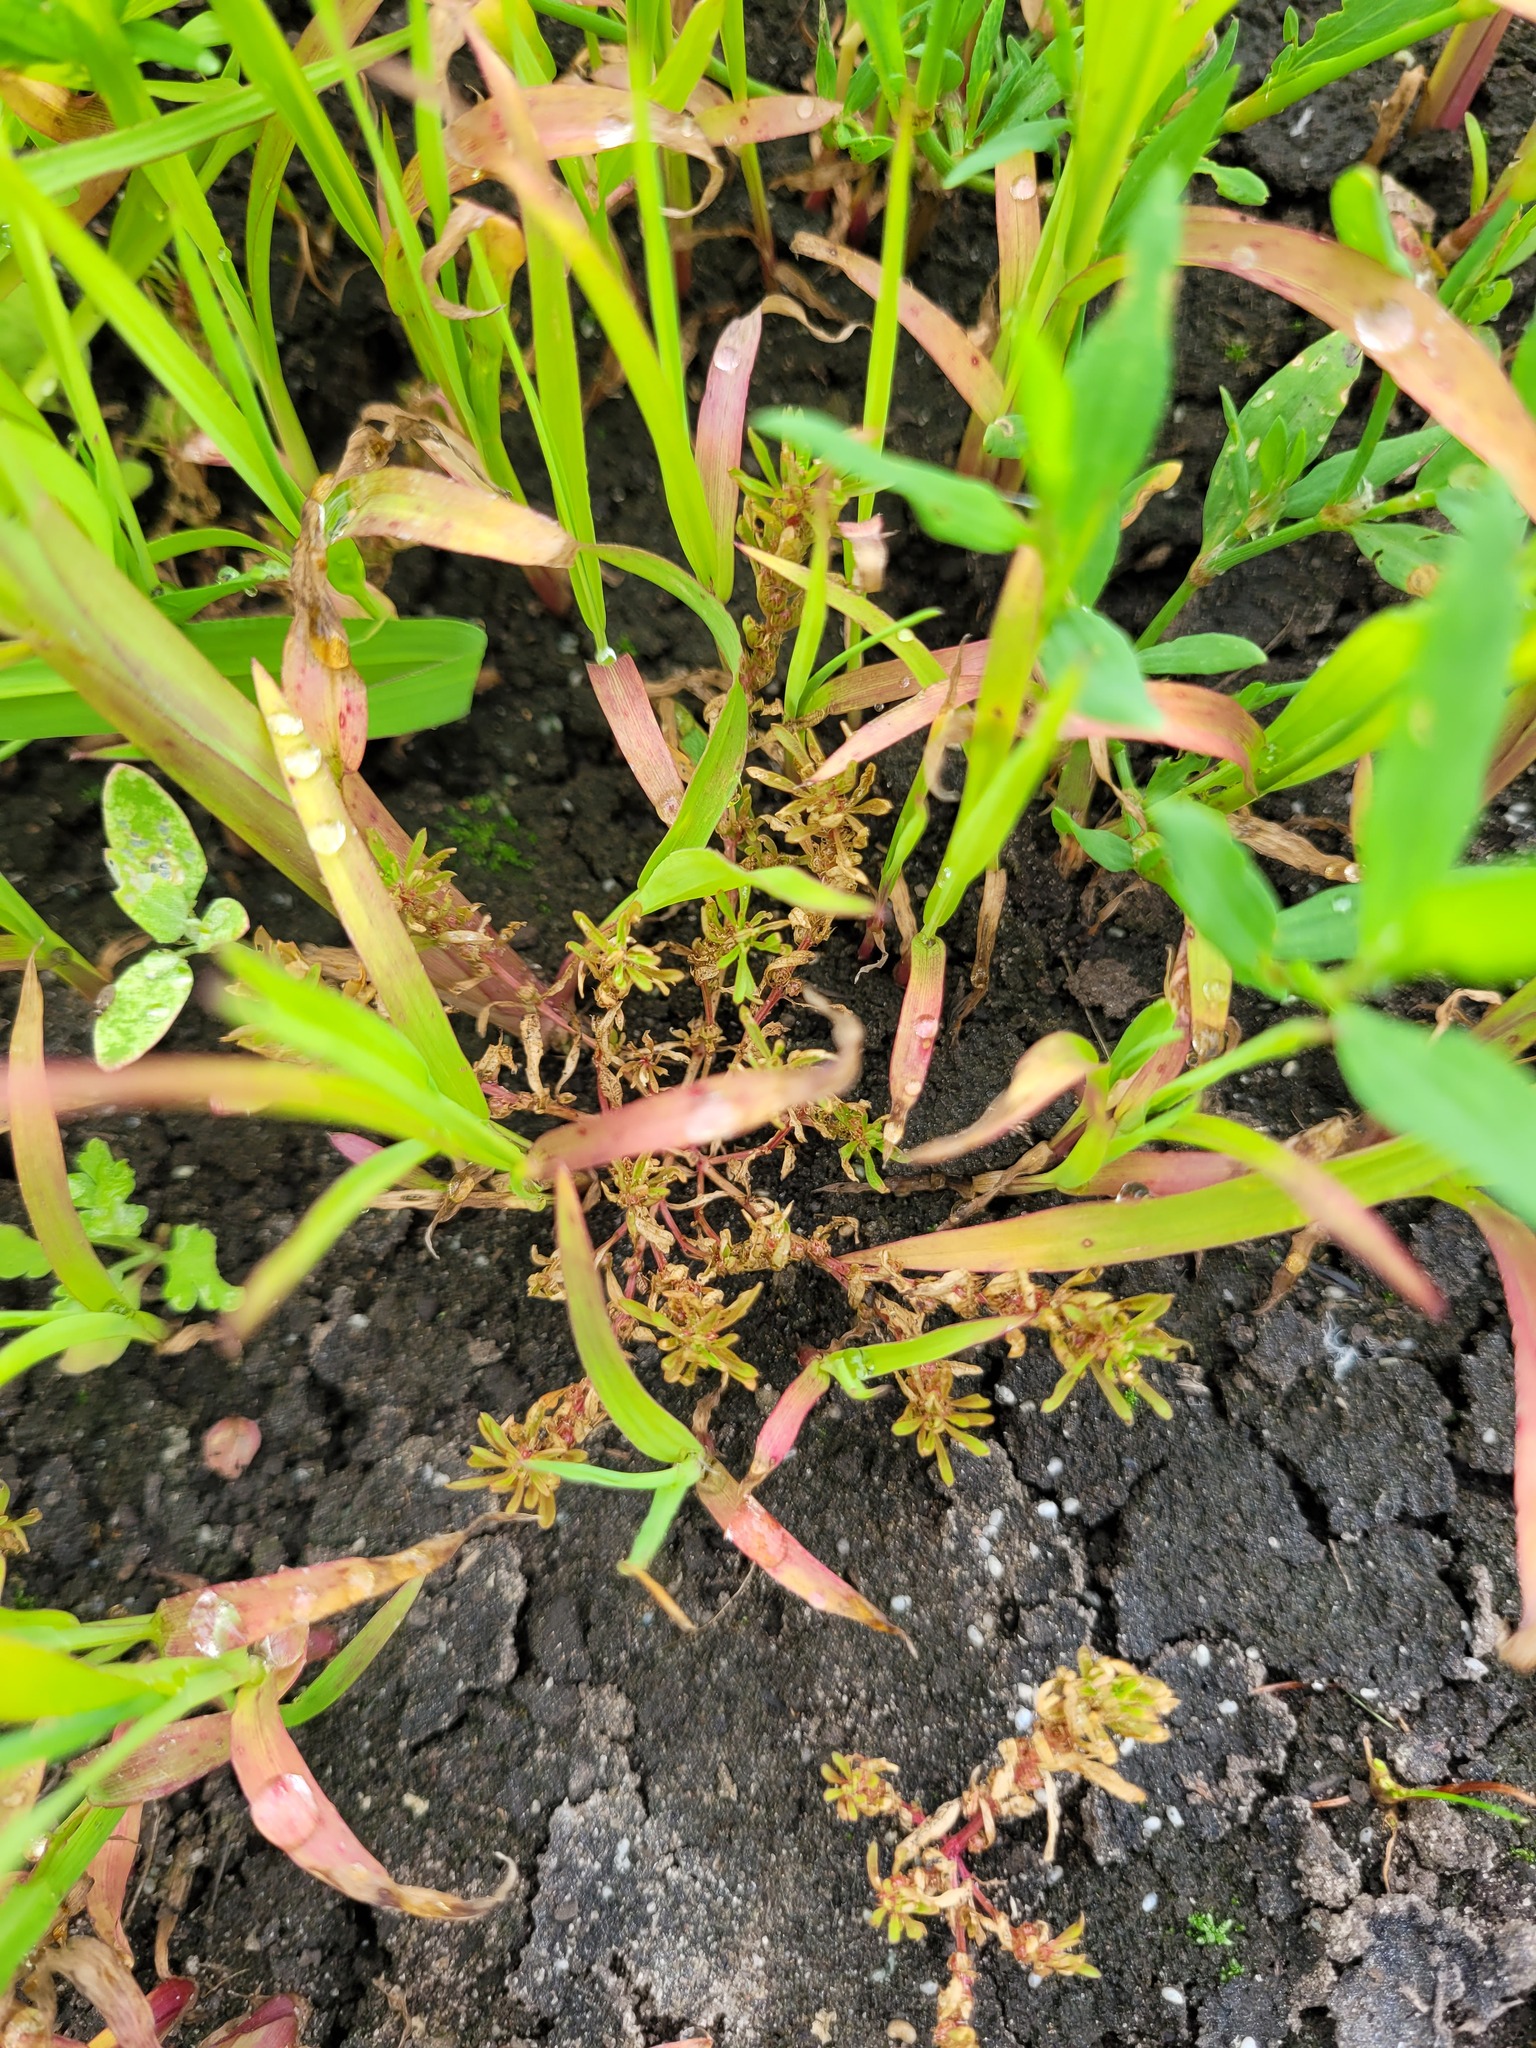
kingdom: Plantae
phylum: Tracheophyta
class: Magnoliopsida
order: Myrtales
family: Lythraceae
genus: Lythrum
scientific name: Lythrum volgense
